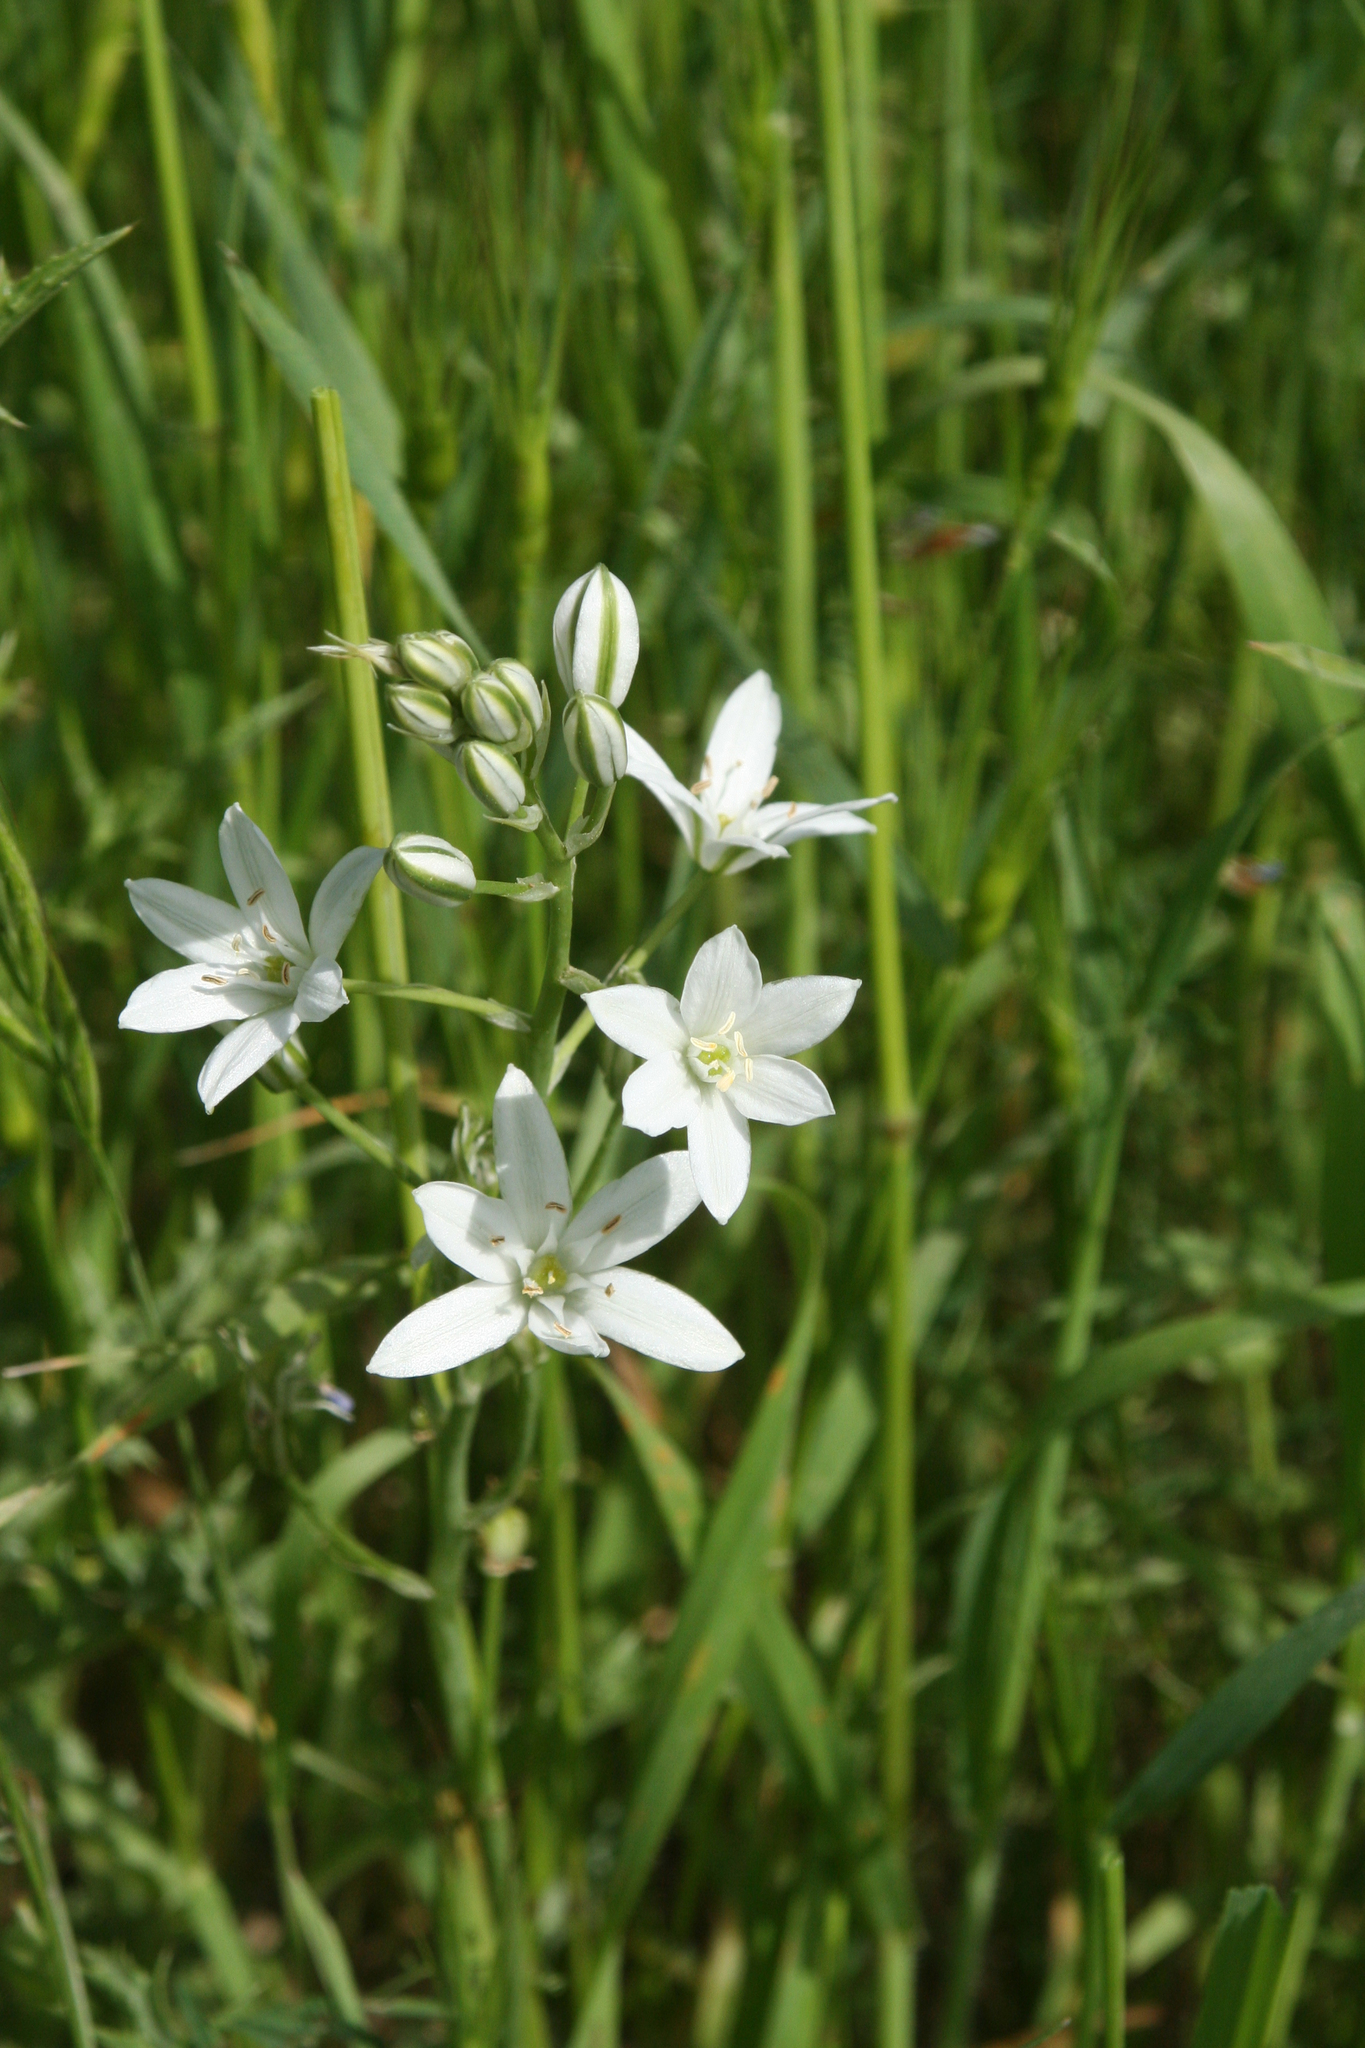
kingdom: Plantae
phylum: Tracheophyta
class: Liliopsida
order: Asparagales
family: Asparagaceae
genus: Ornithogalum
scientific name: Ornithogalum narbonense
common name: Bath-asparagus
